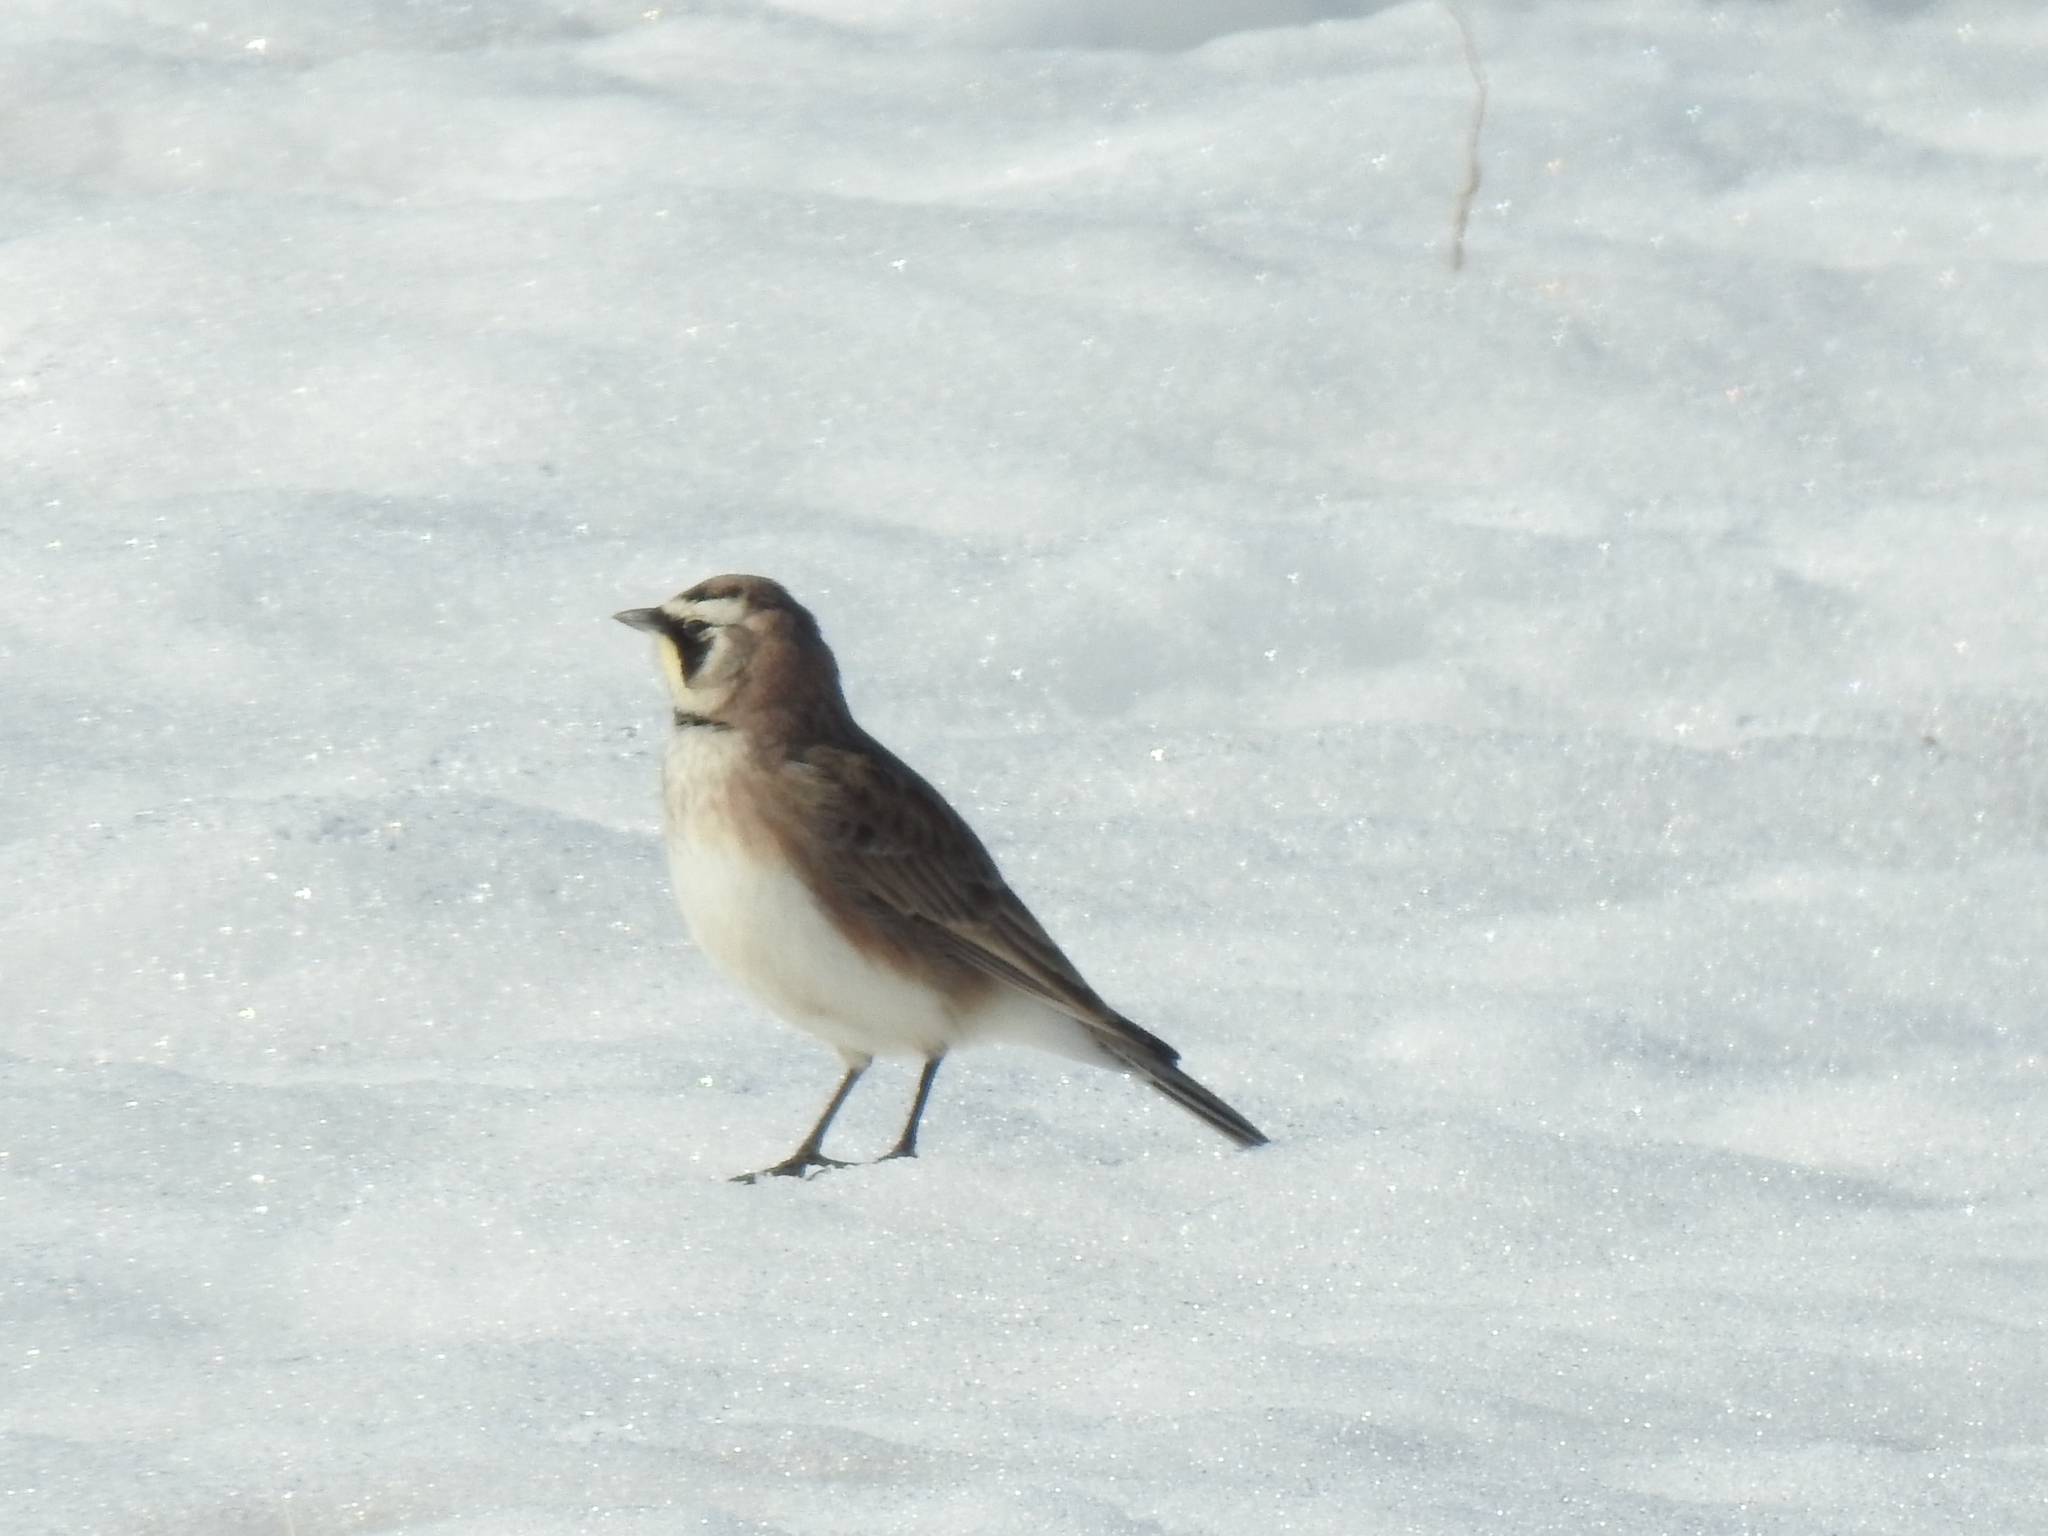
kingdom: Animalia
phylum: Chordata
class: Aves
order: Passeriformes
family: Alaudidae
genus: Eremophila
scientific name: Eremophila alpestris
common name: Horned lark
